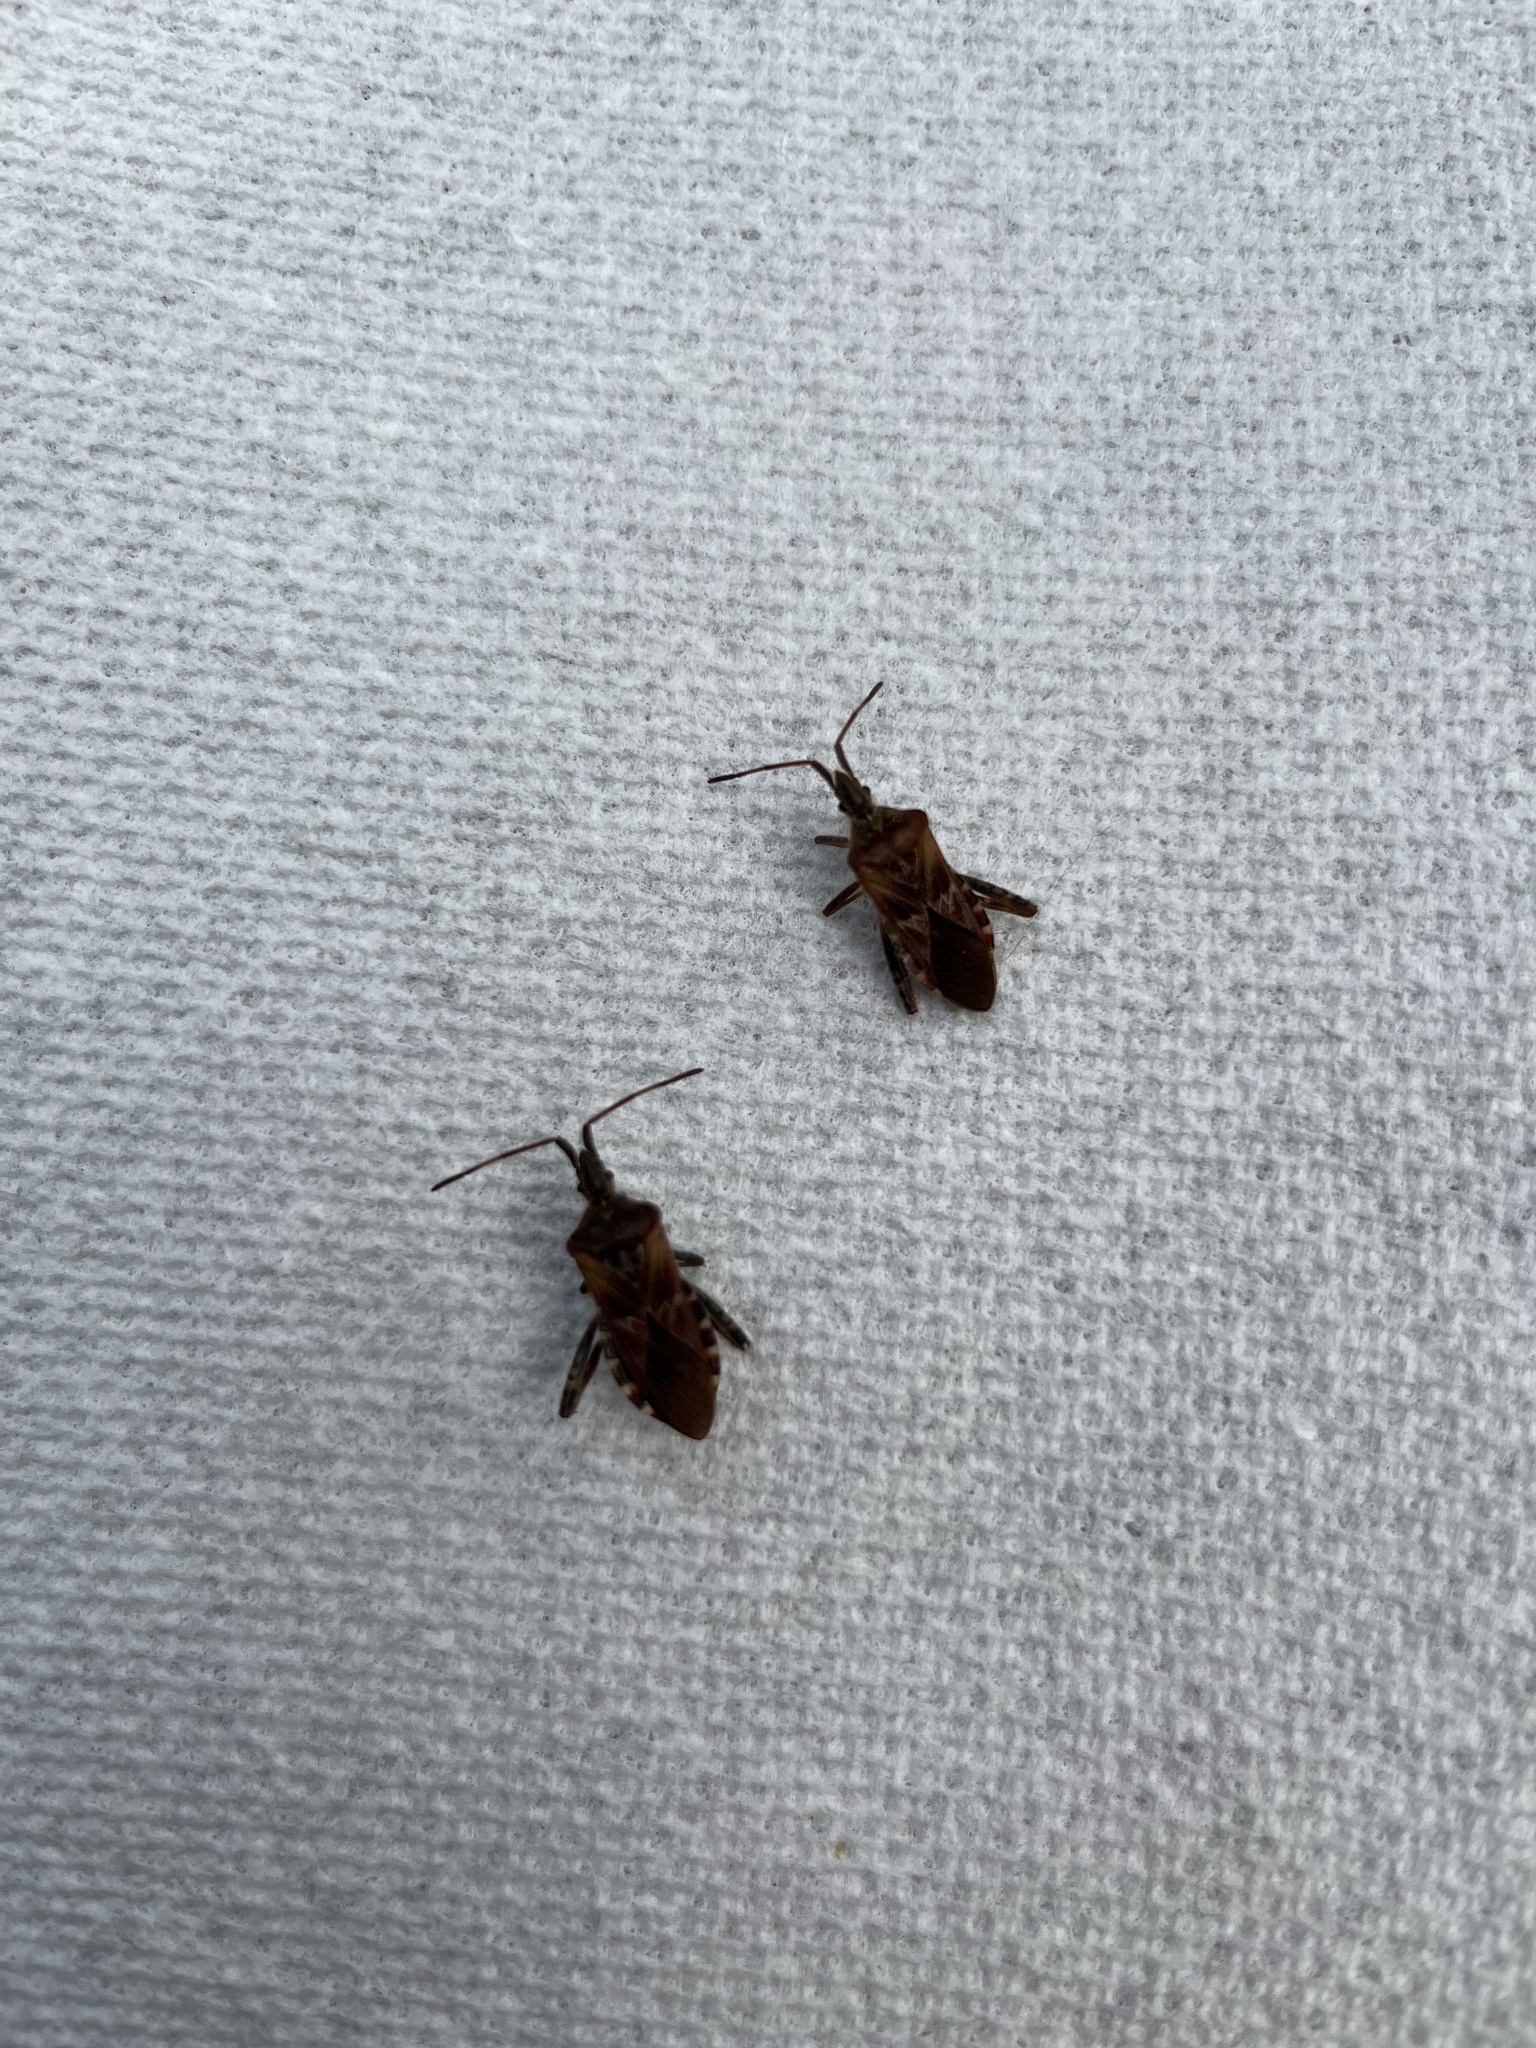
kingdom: Animalia
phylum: Arthropoda
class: Insecta
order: Hemiptera
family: Coreidae
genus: Leptoglossus
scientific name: Leptoglossus occidentalis
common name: Western conifer-seed bug
